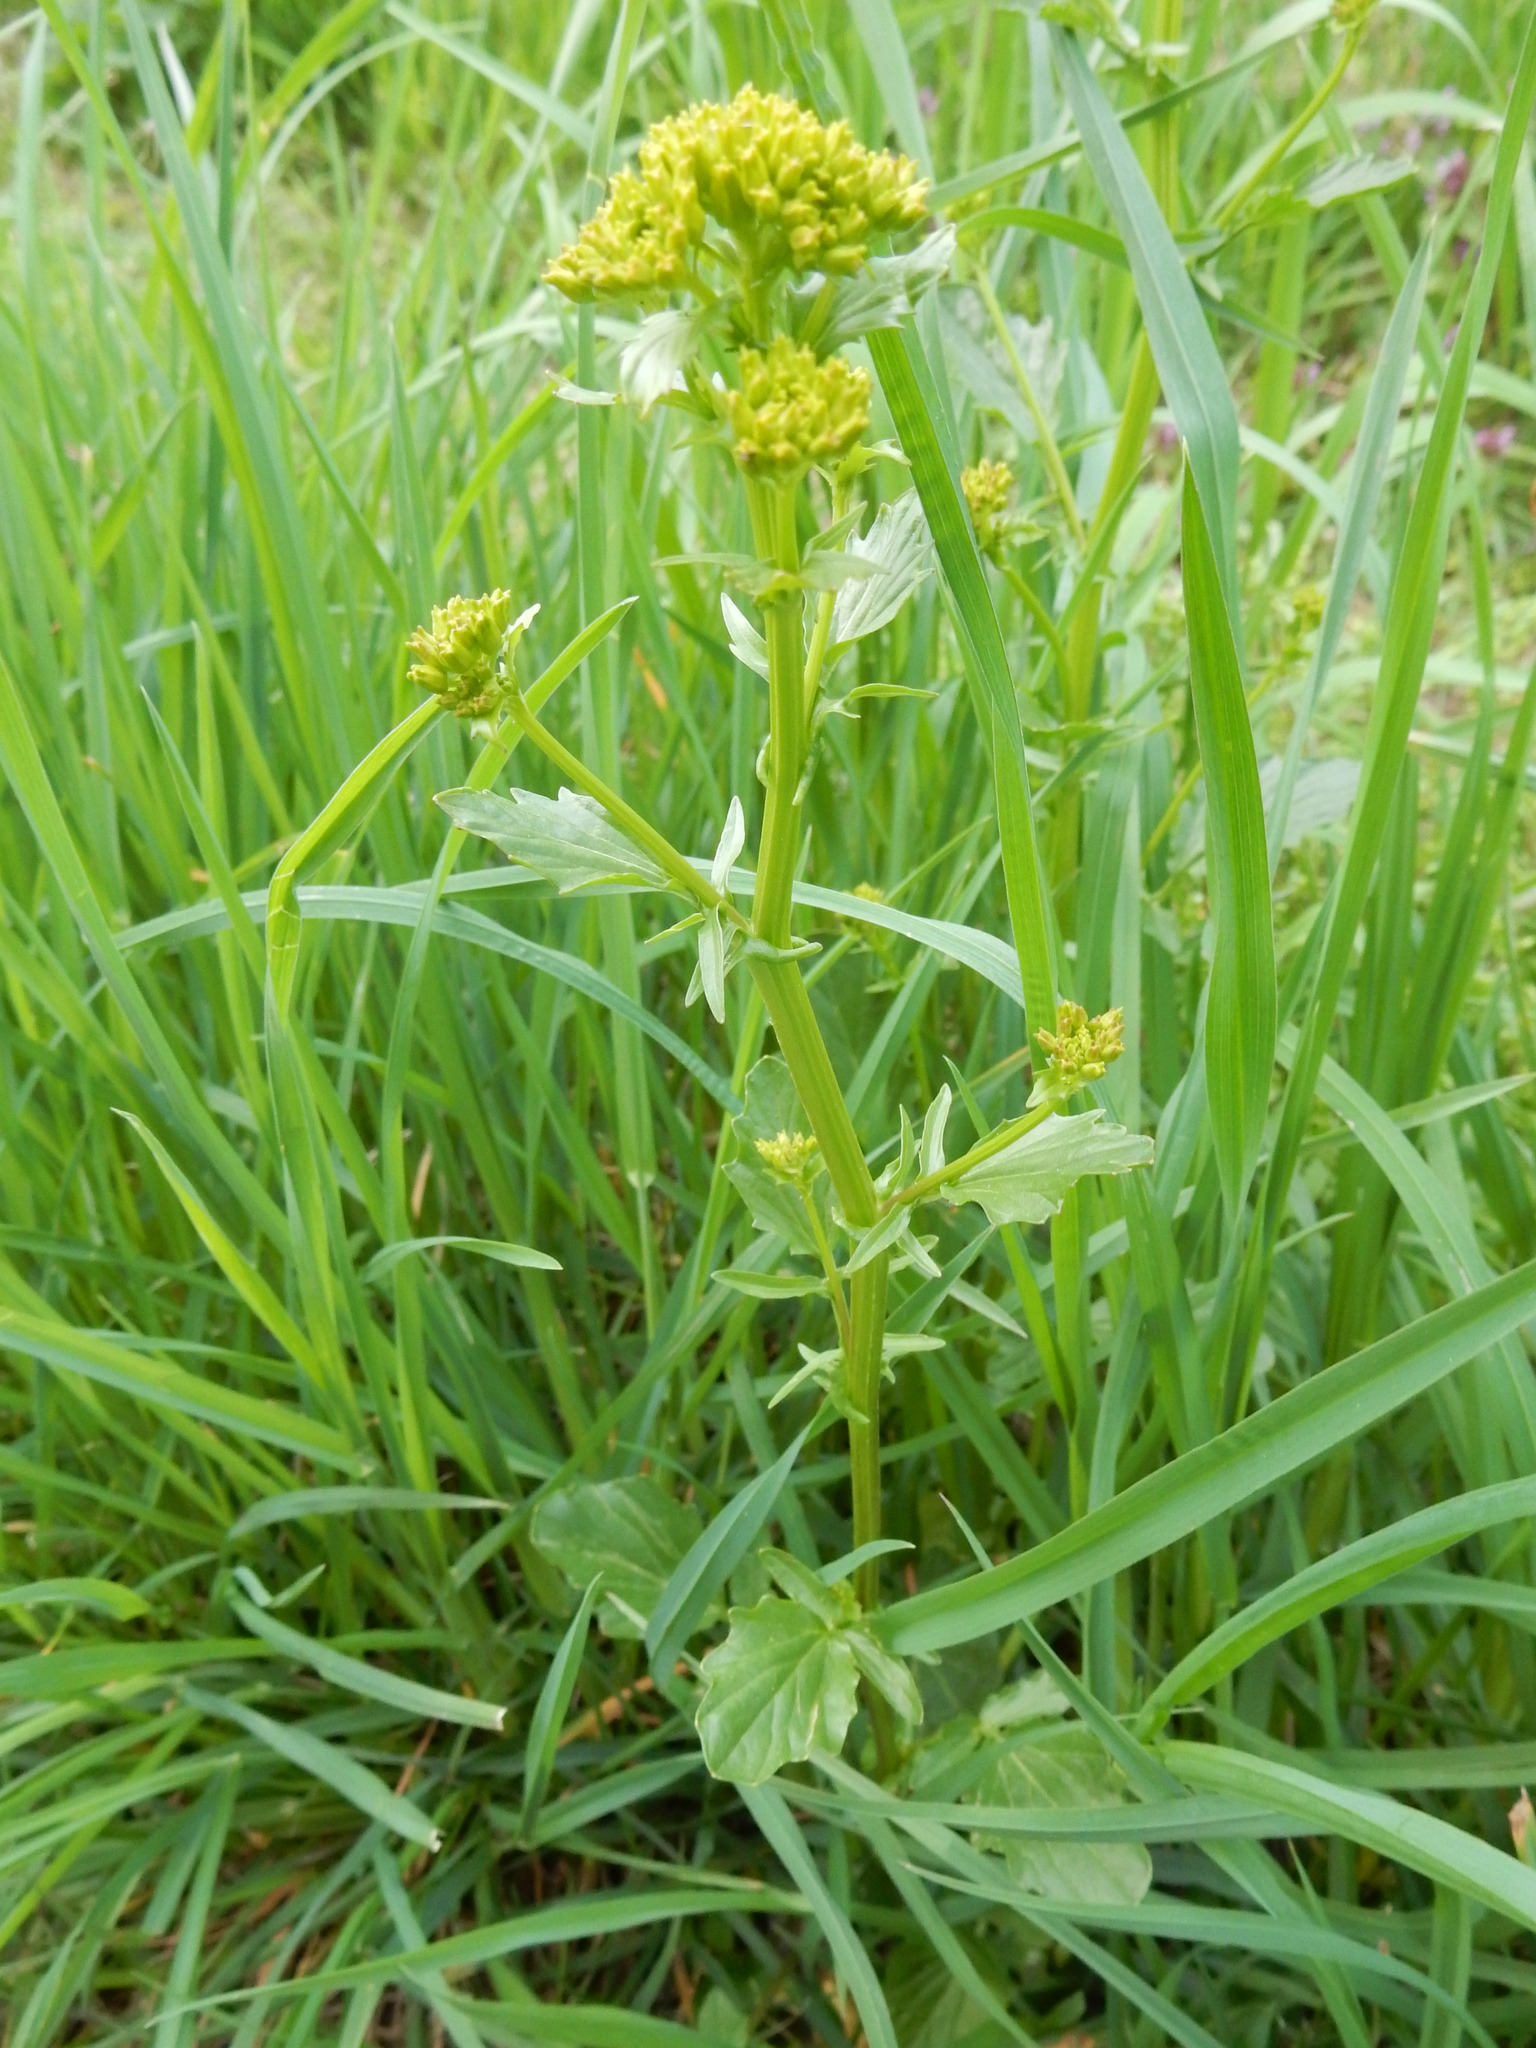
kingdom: Plantae
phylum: Tracheophyta
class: Magnoliopsida
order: Brassicales
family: Brassicaceae
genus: Barbarea
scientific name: Barbarea vulgaris
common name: Cressy-greens
